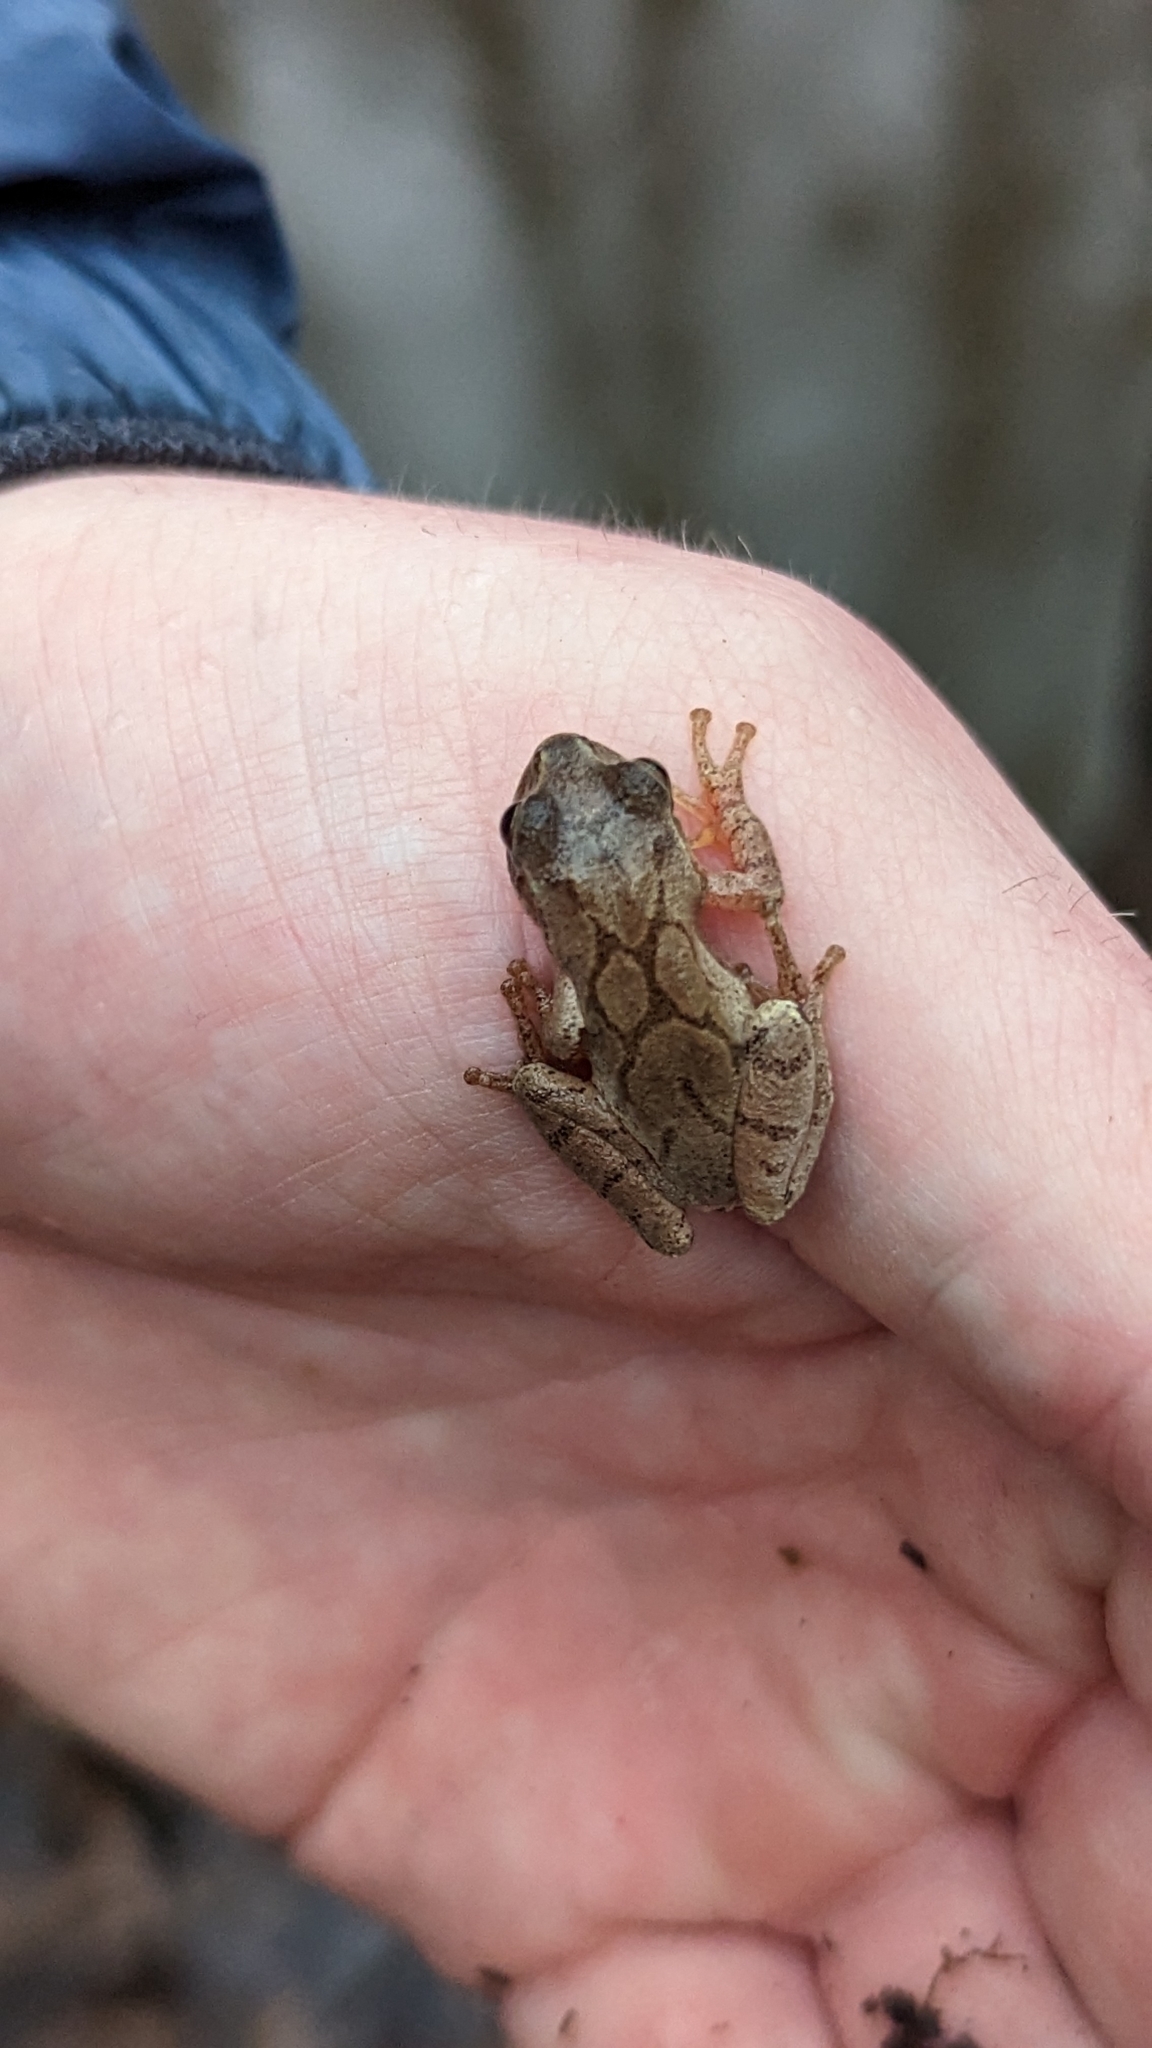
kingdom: Animalia
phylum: Chordata
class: Amphibia
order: Anura
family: Hylidae
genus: Pseudacris
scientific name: Pseudacris crucifer
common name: Spring peeper
